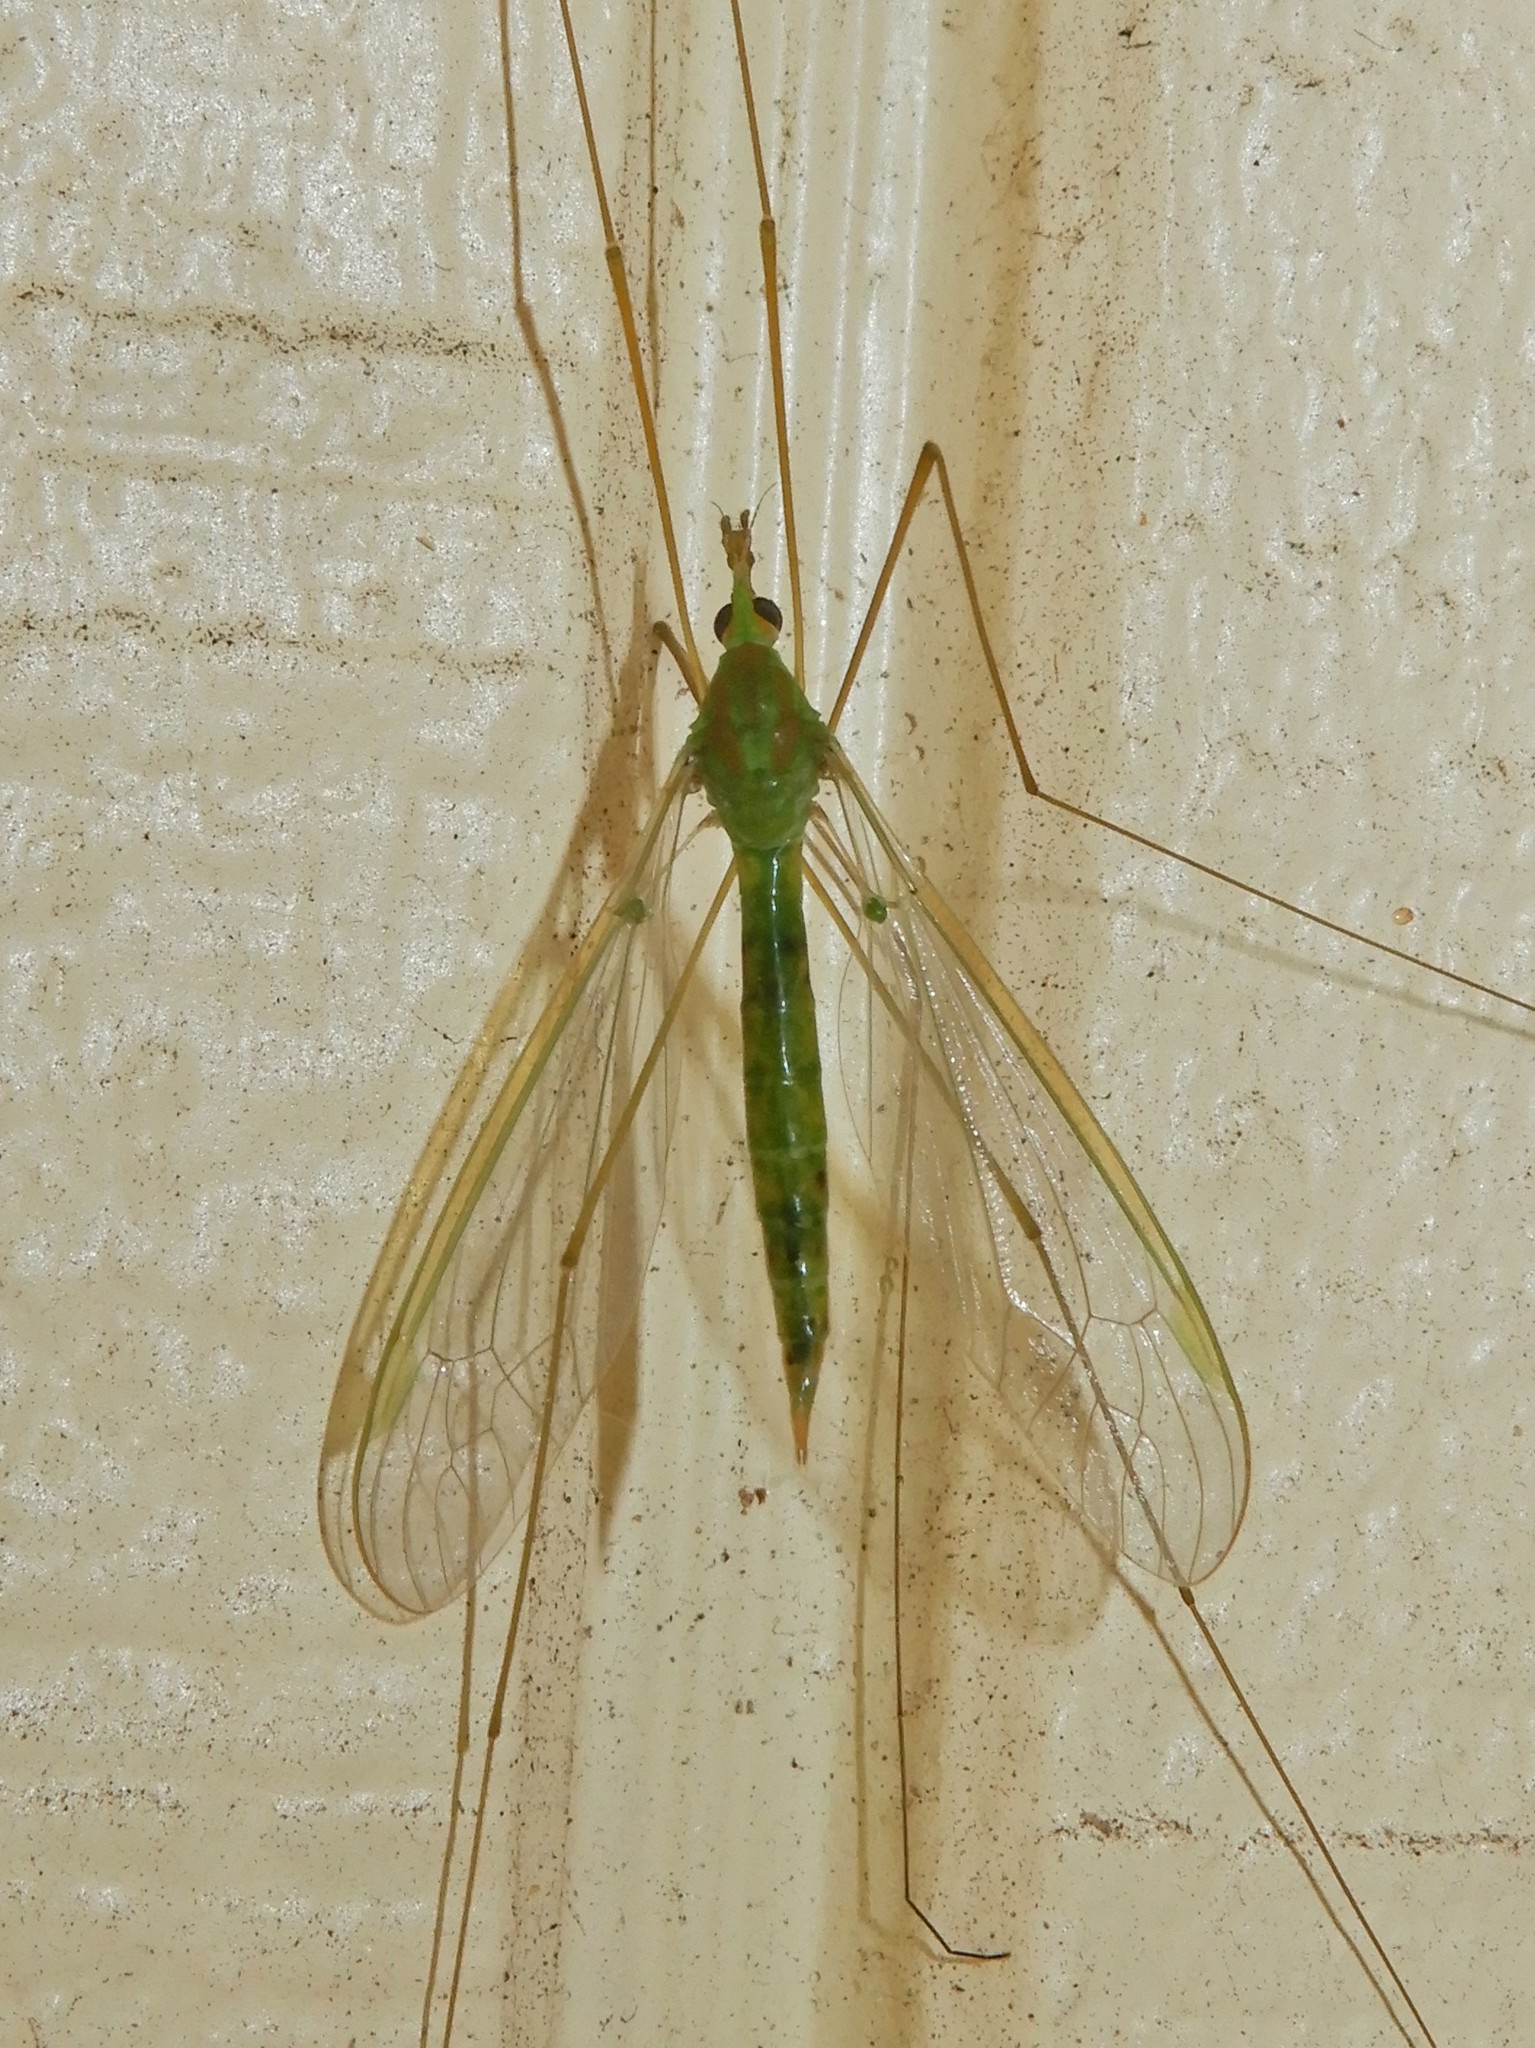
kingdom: Animalia
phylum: Arthropoda
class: Insecta
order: Diptera
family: Tipulidae
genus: Leptotarsus
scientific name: Leptotarsus virescens
